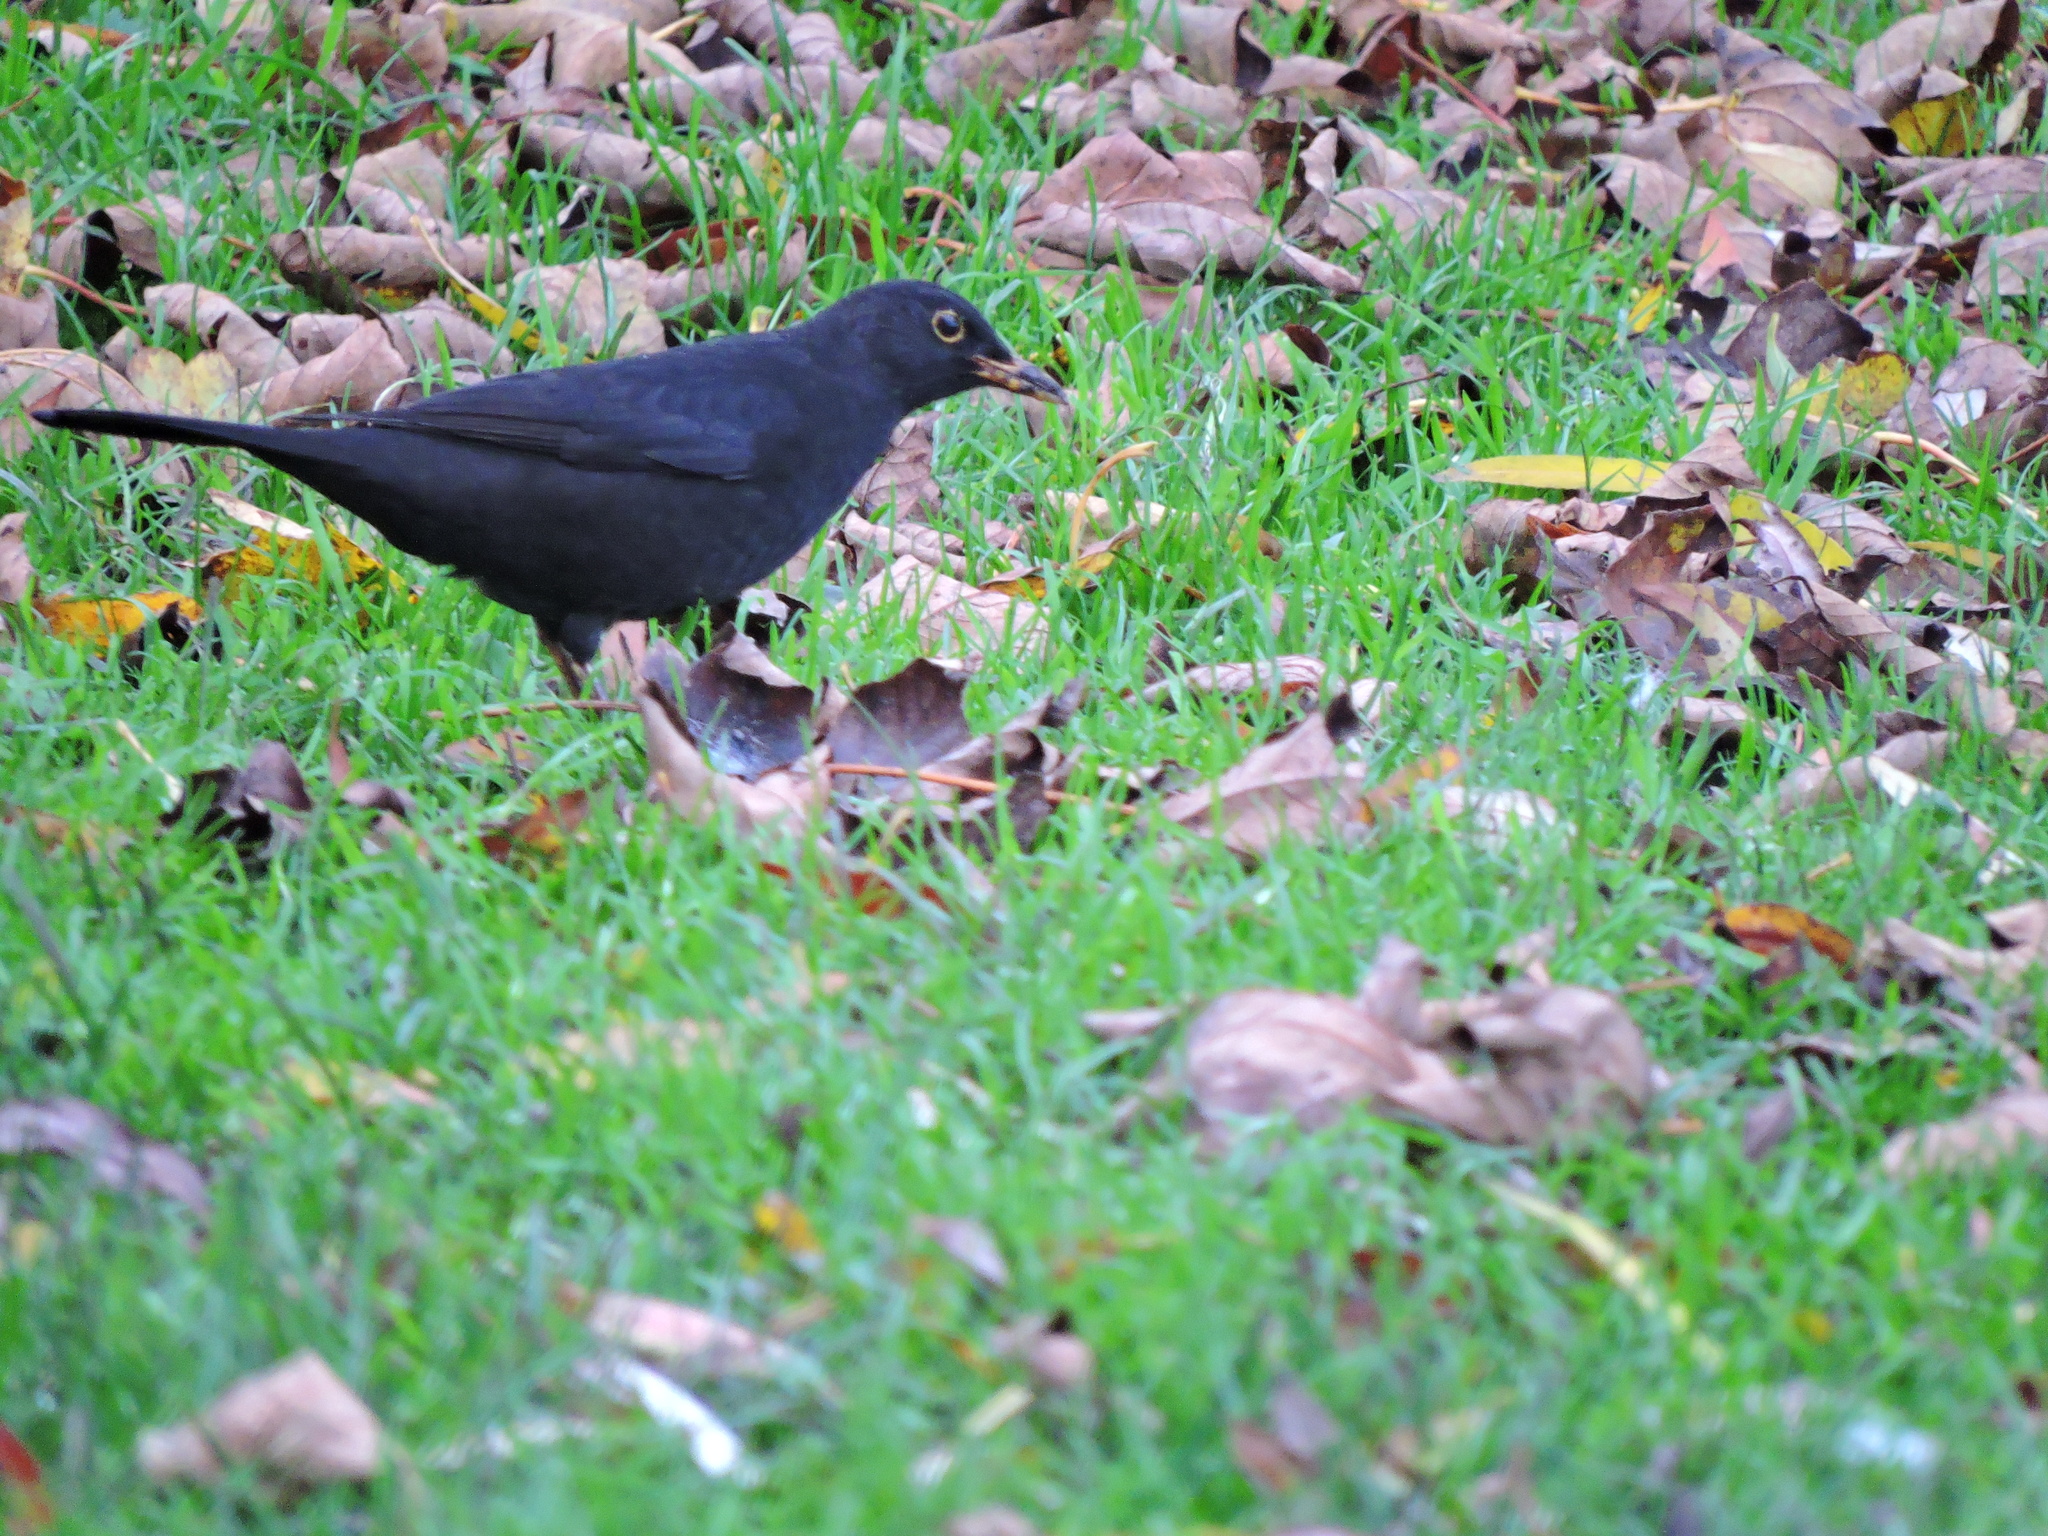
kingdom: Animalia
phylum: Chordata
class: Aves
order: Passeriformes
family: Turdidae
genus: Turdus
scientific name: Turdus merula
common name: Common blackbird
